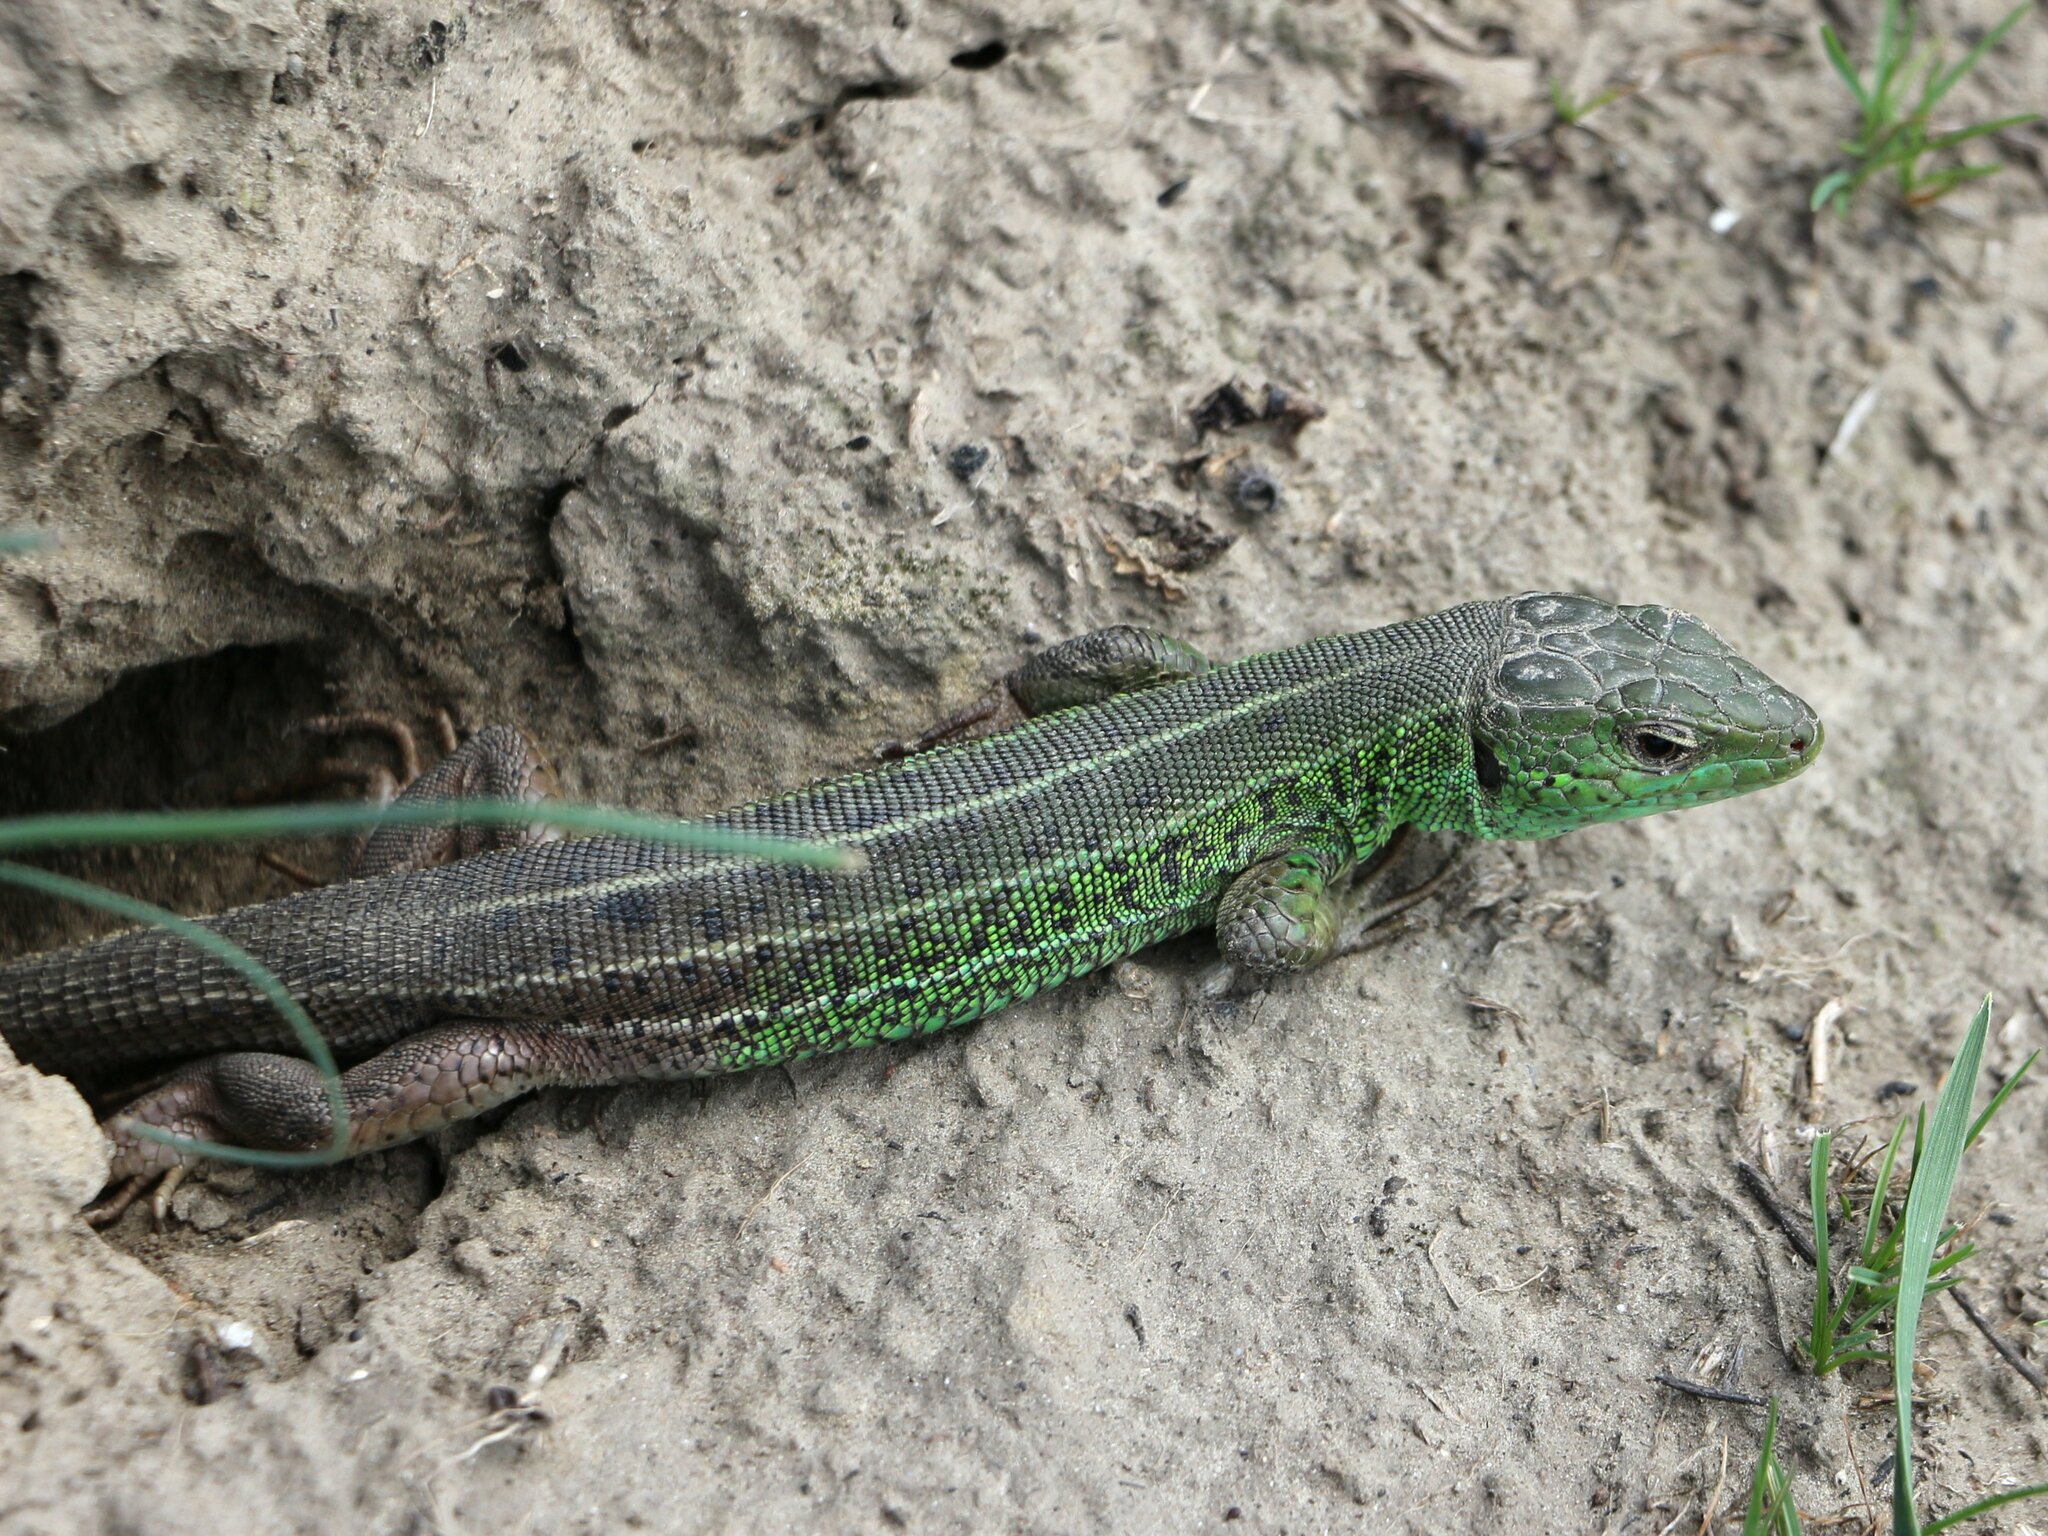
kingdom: Animalia
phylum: Chordata
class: Squamata
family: Lacertidae
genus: Lacerta
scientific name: Lacerta strigata
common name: Caspian green lizard
